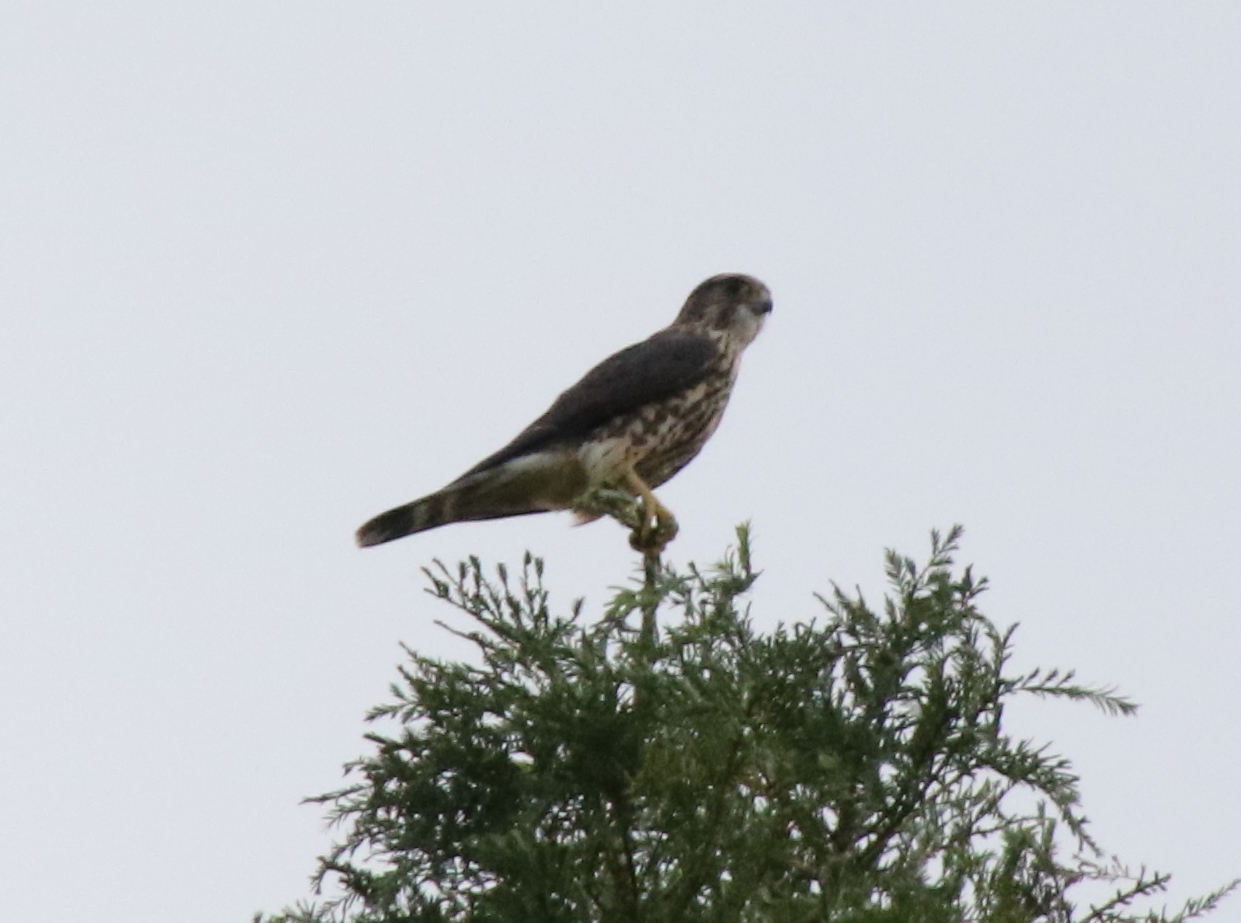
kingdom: Animalia
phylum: Chordata
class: Aves
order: Falconiformes
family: Falconidae
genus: Falco
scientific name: Falco columbarius
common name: Merlin
